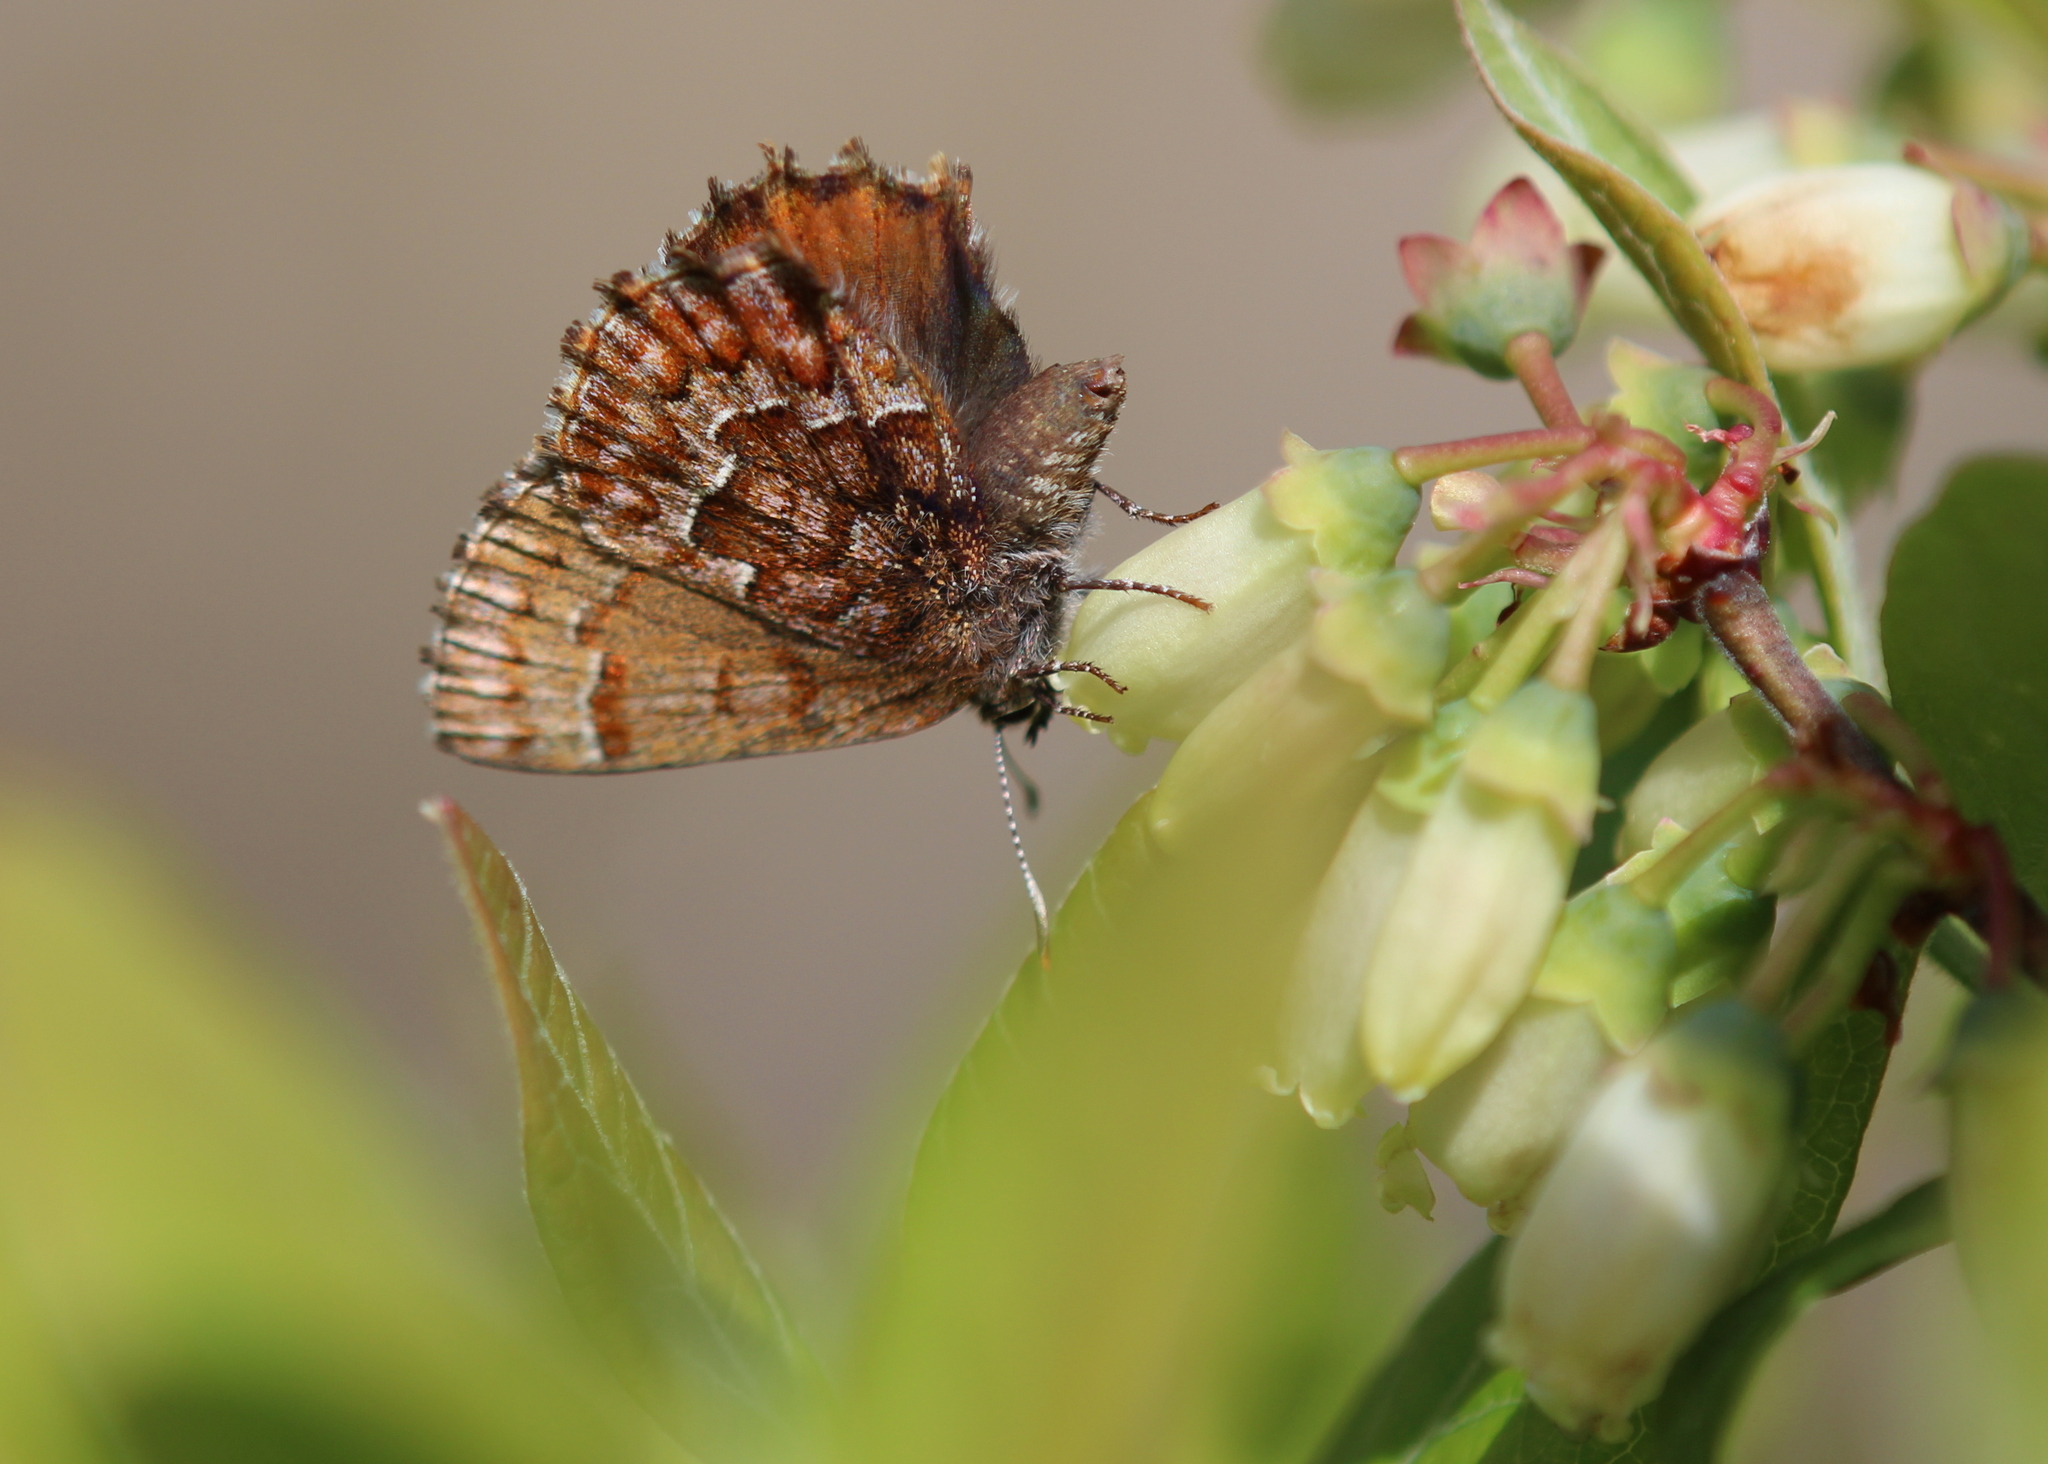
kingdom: Animalia
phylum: Arthropoda
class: Insecta
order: Lepidoptera
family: Lycaenidae
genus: Incisalia
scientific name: Incisalia niphon
